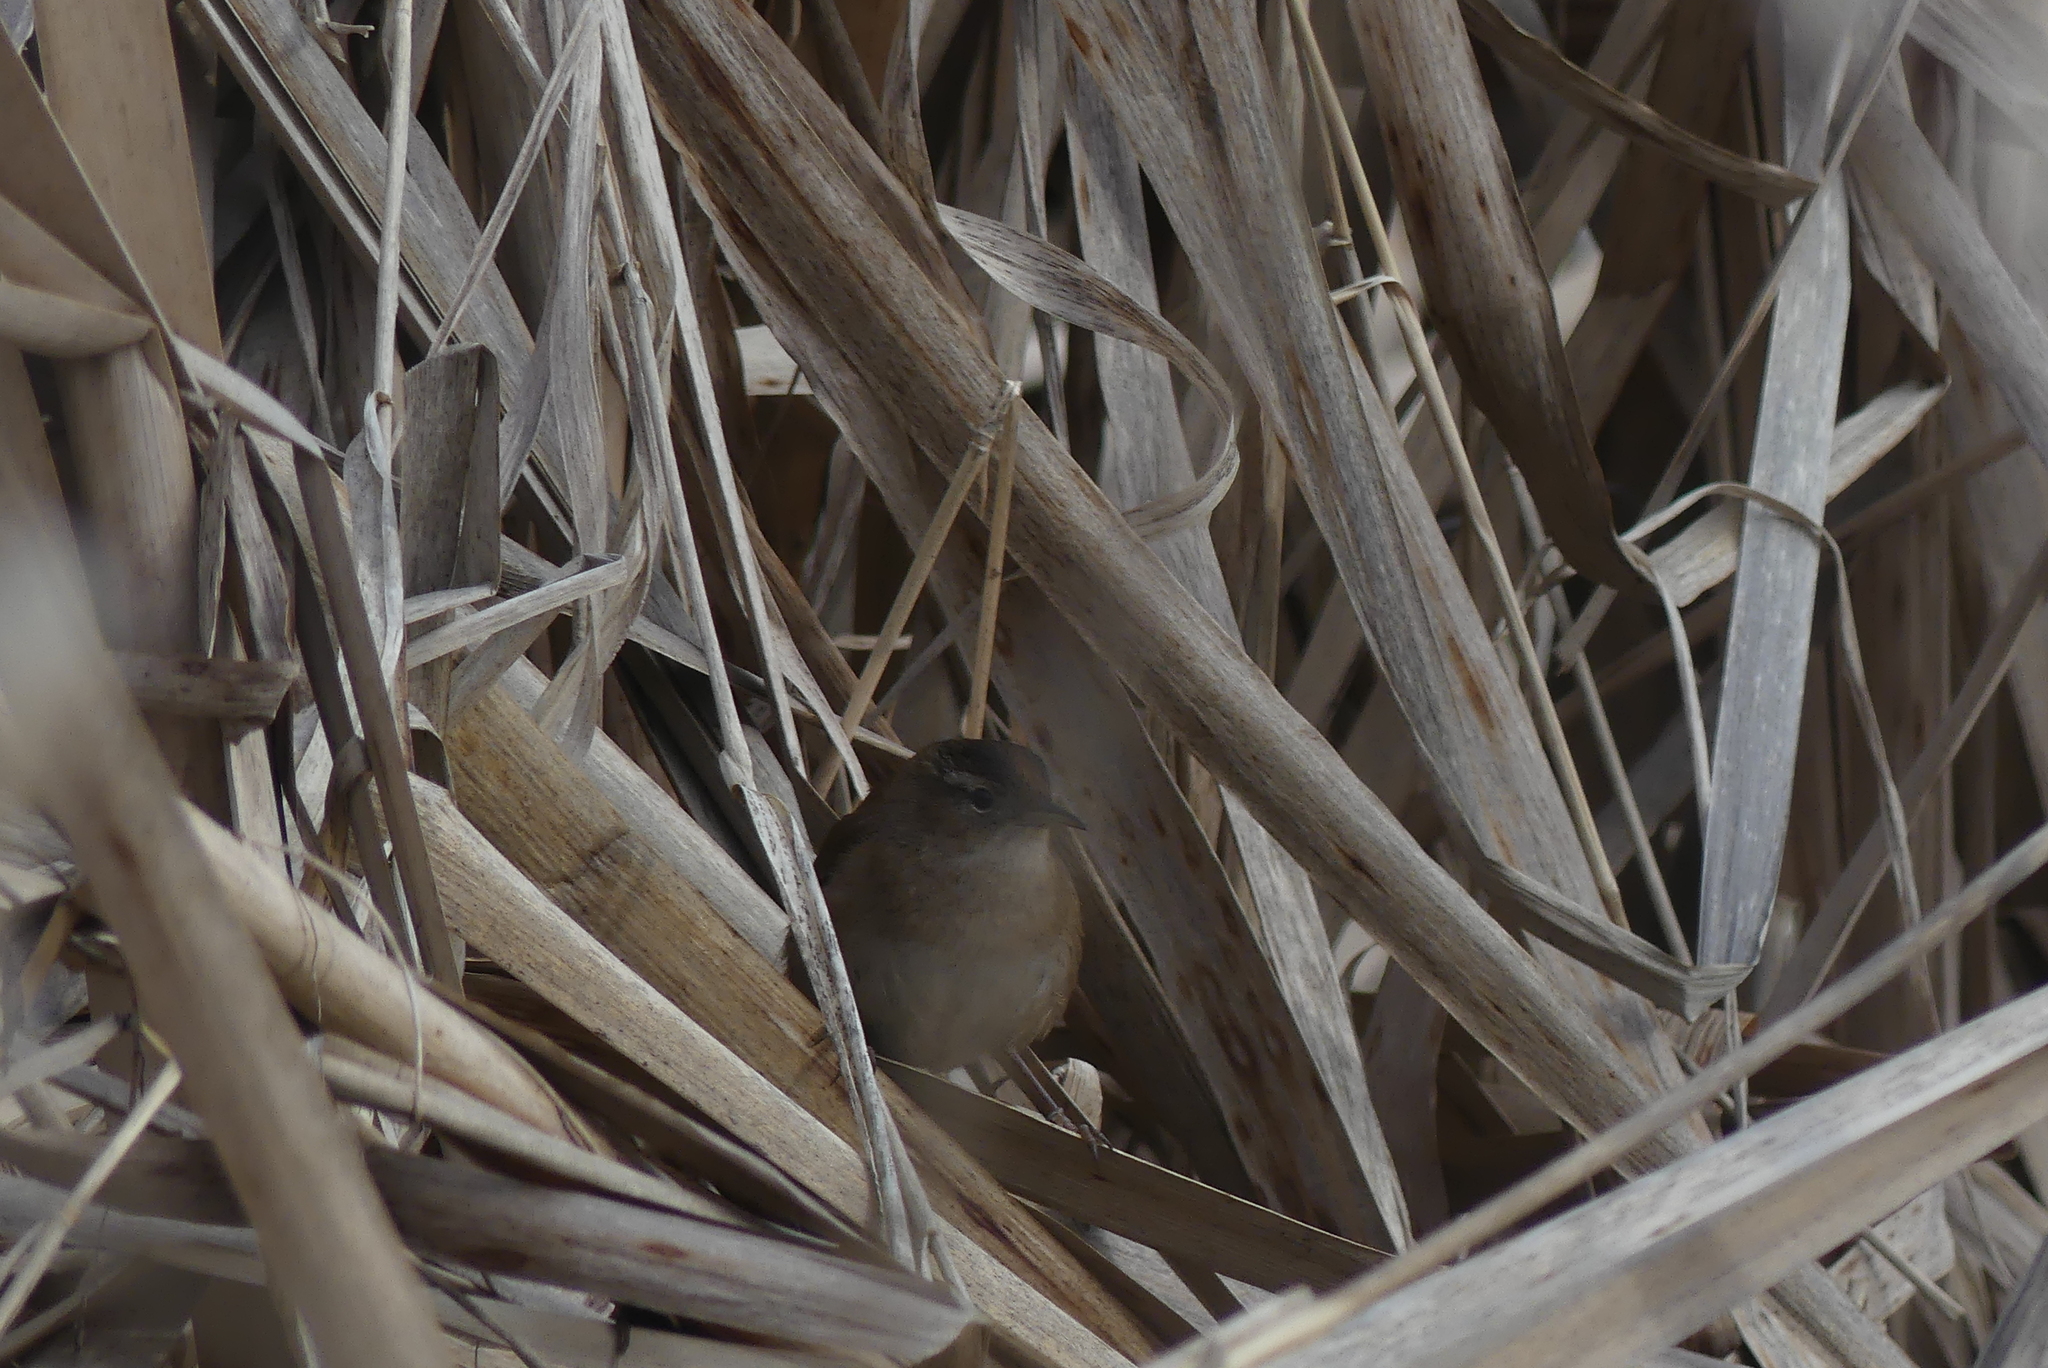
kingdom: Animalia
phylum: Chordata
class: Aves
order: Passeriformes
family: Troglodytidae
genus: Cistothorus
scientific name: Cistothorus palustris
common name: Marsh wren
